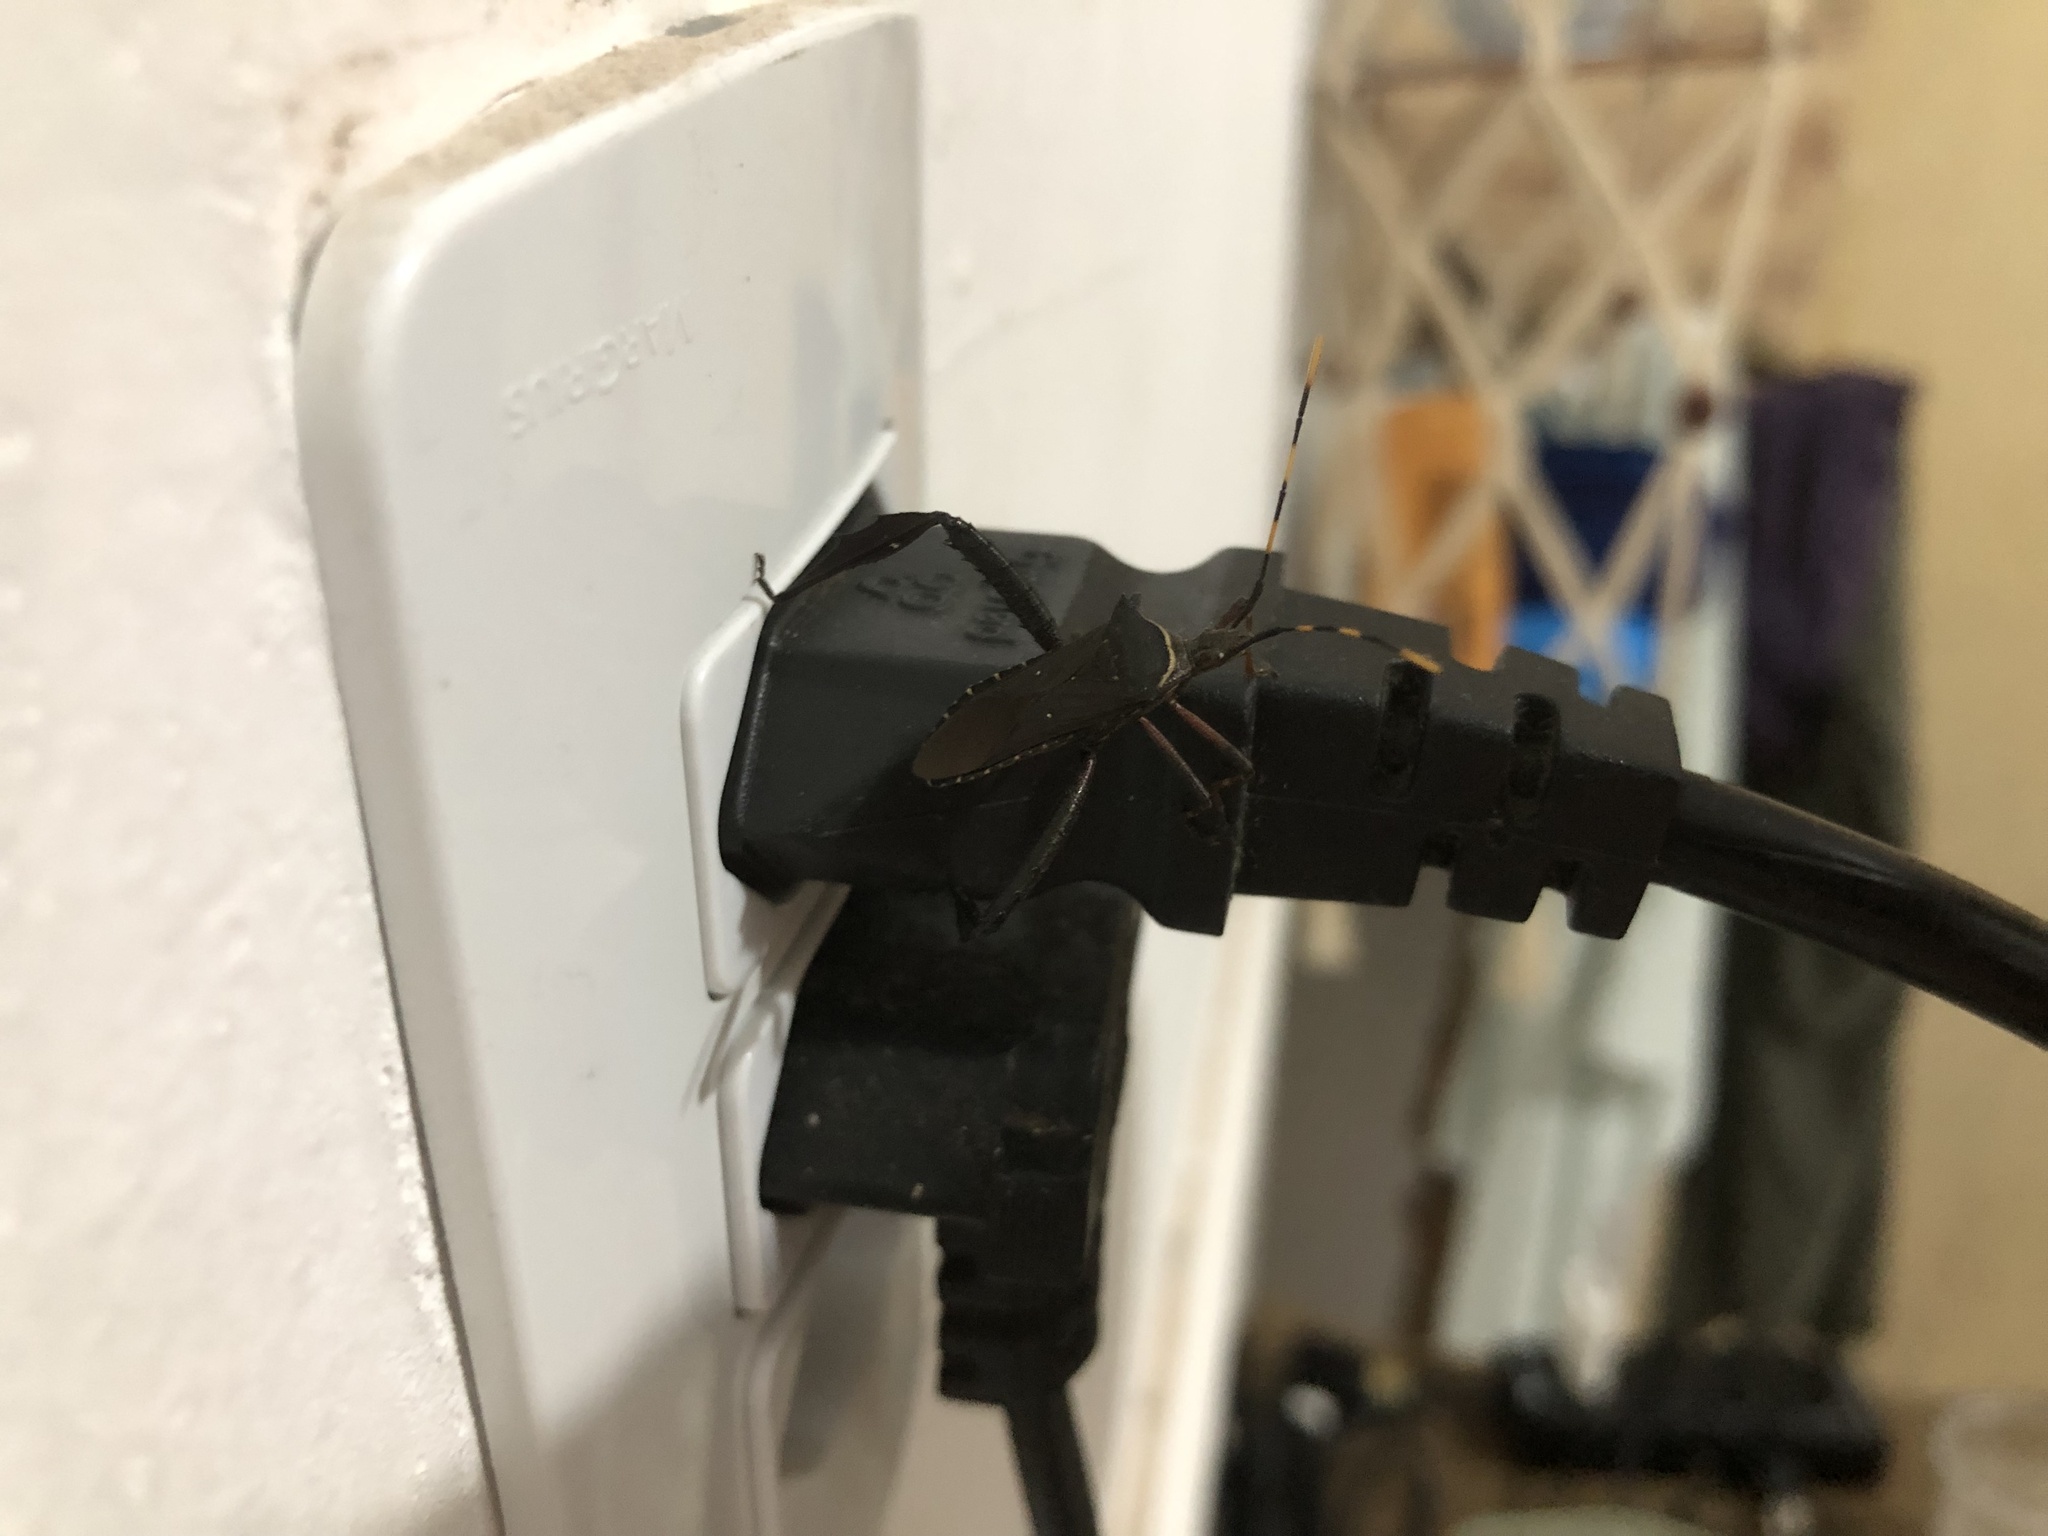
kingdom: Animalia
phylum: Arthropoda
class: Insecta
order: Hemiptera
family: Coreidae
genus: Leptoglossus
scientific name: Leptoglossus gonagra
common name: Citron bug
